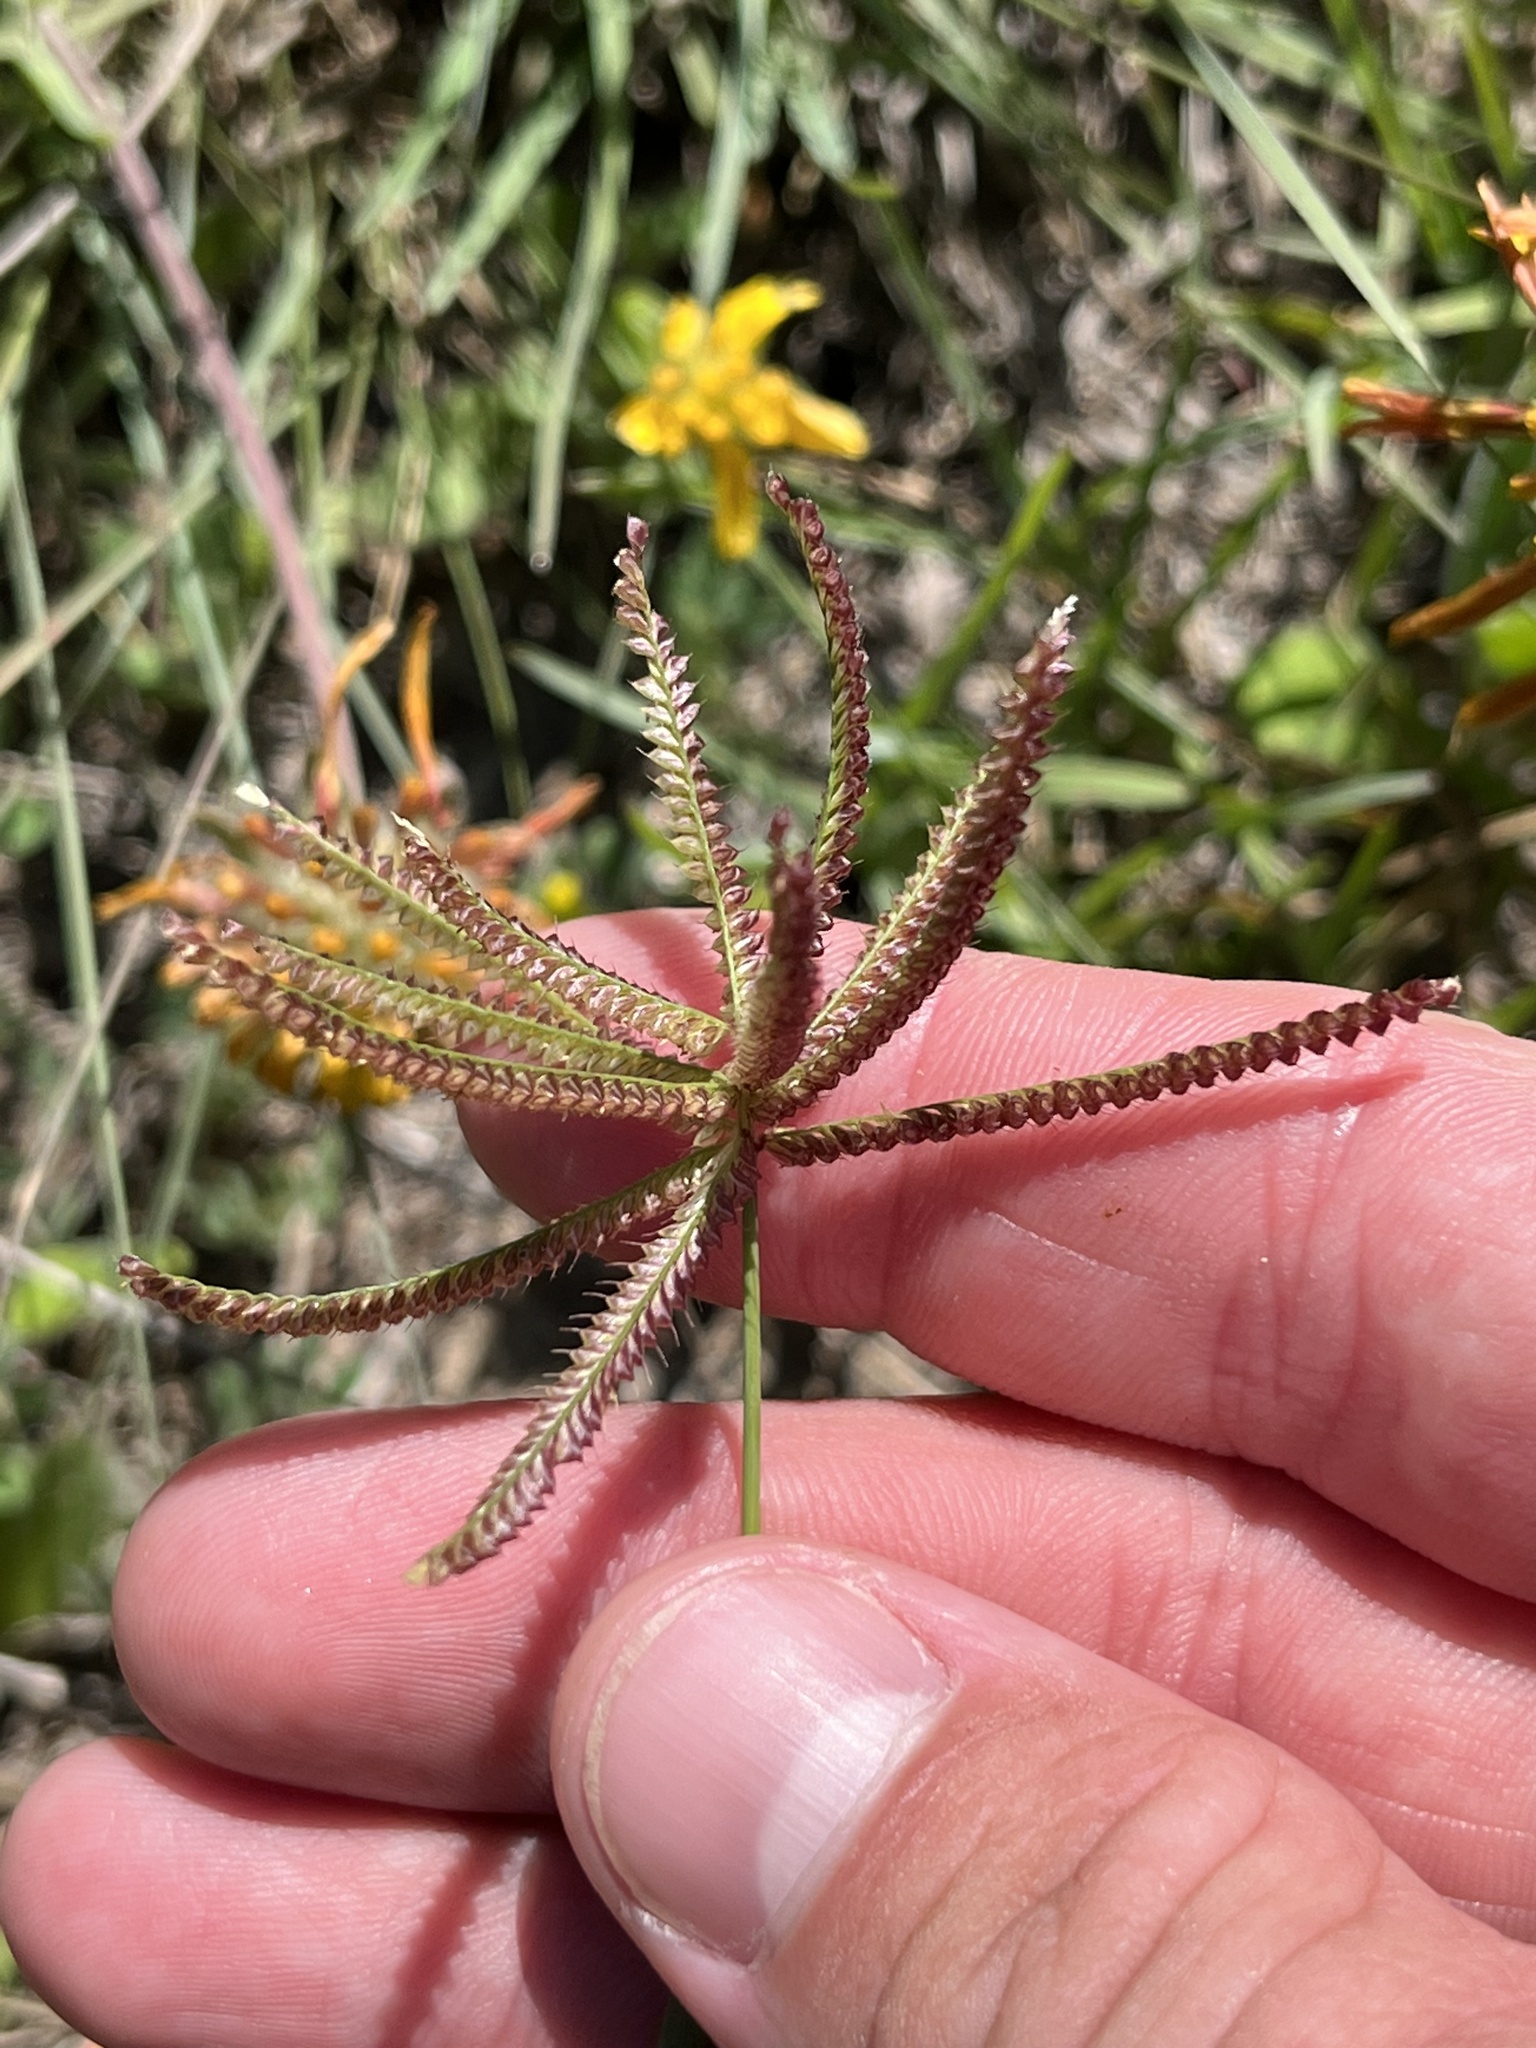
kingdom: Plantae
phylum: Tracheophyta
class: Liliopsida
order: Poales
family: Poaceae
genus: Chloris
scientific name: Chloris cucullata
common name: Hooded windmill grass
